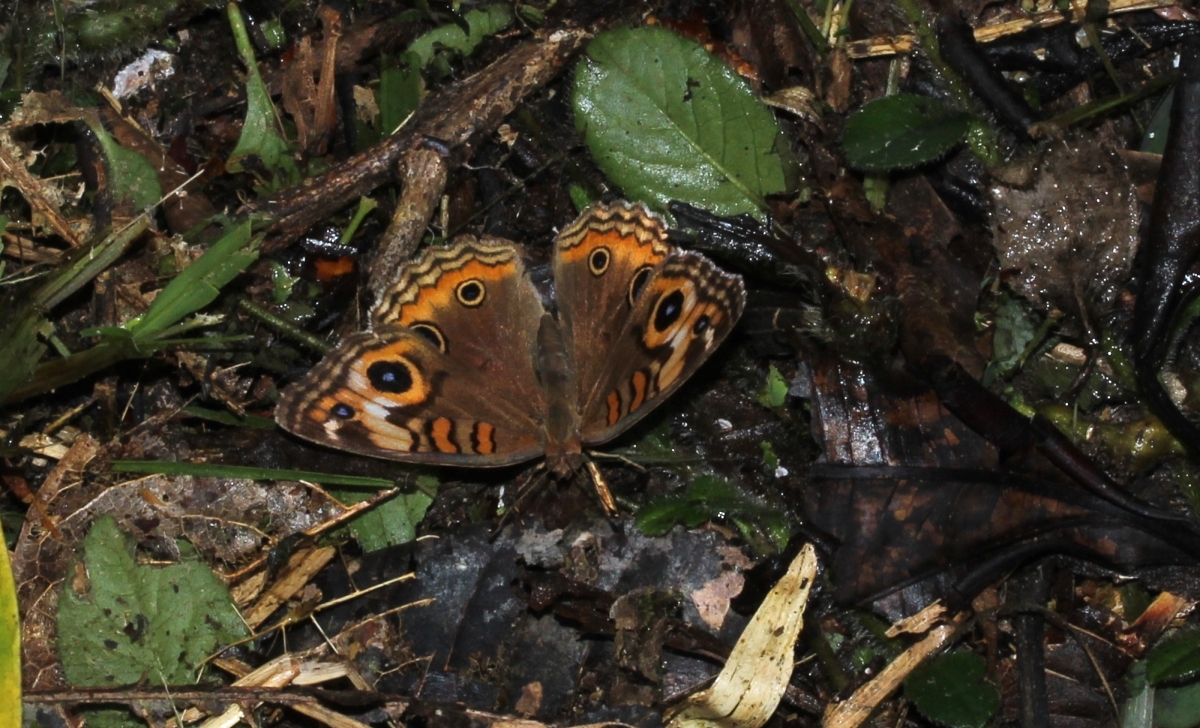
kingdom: Animalia
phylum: Arthropoda
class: Insecta
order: Lepidoptera
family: Nymphalidae
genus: Junonia
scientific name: Junonia lavinia
